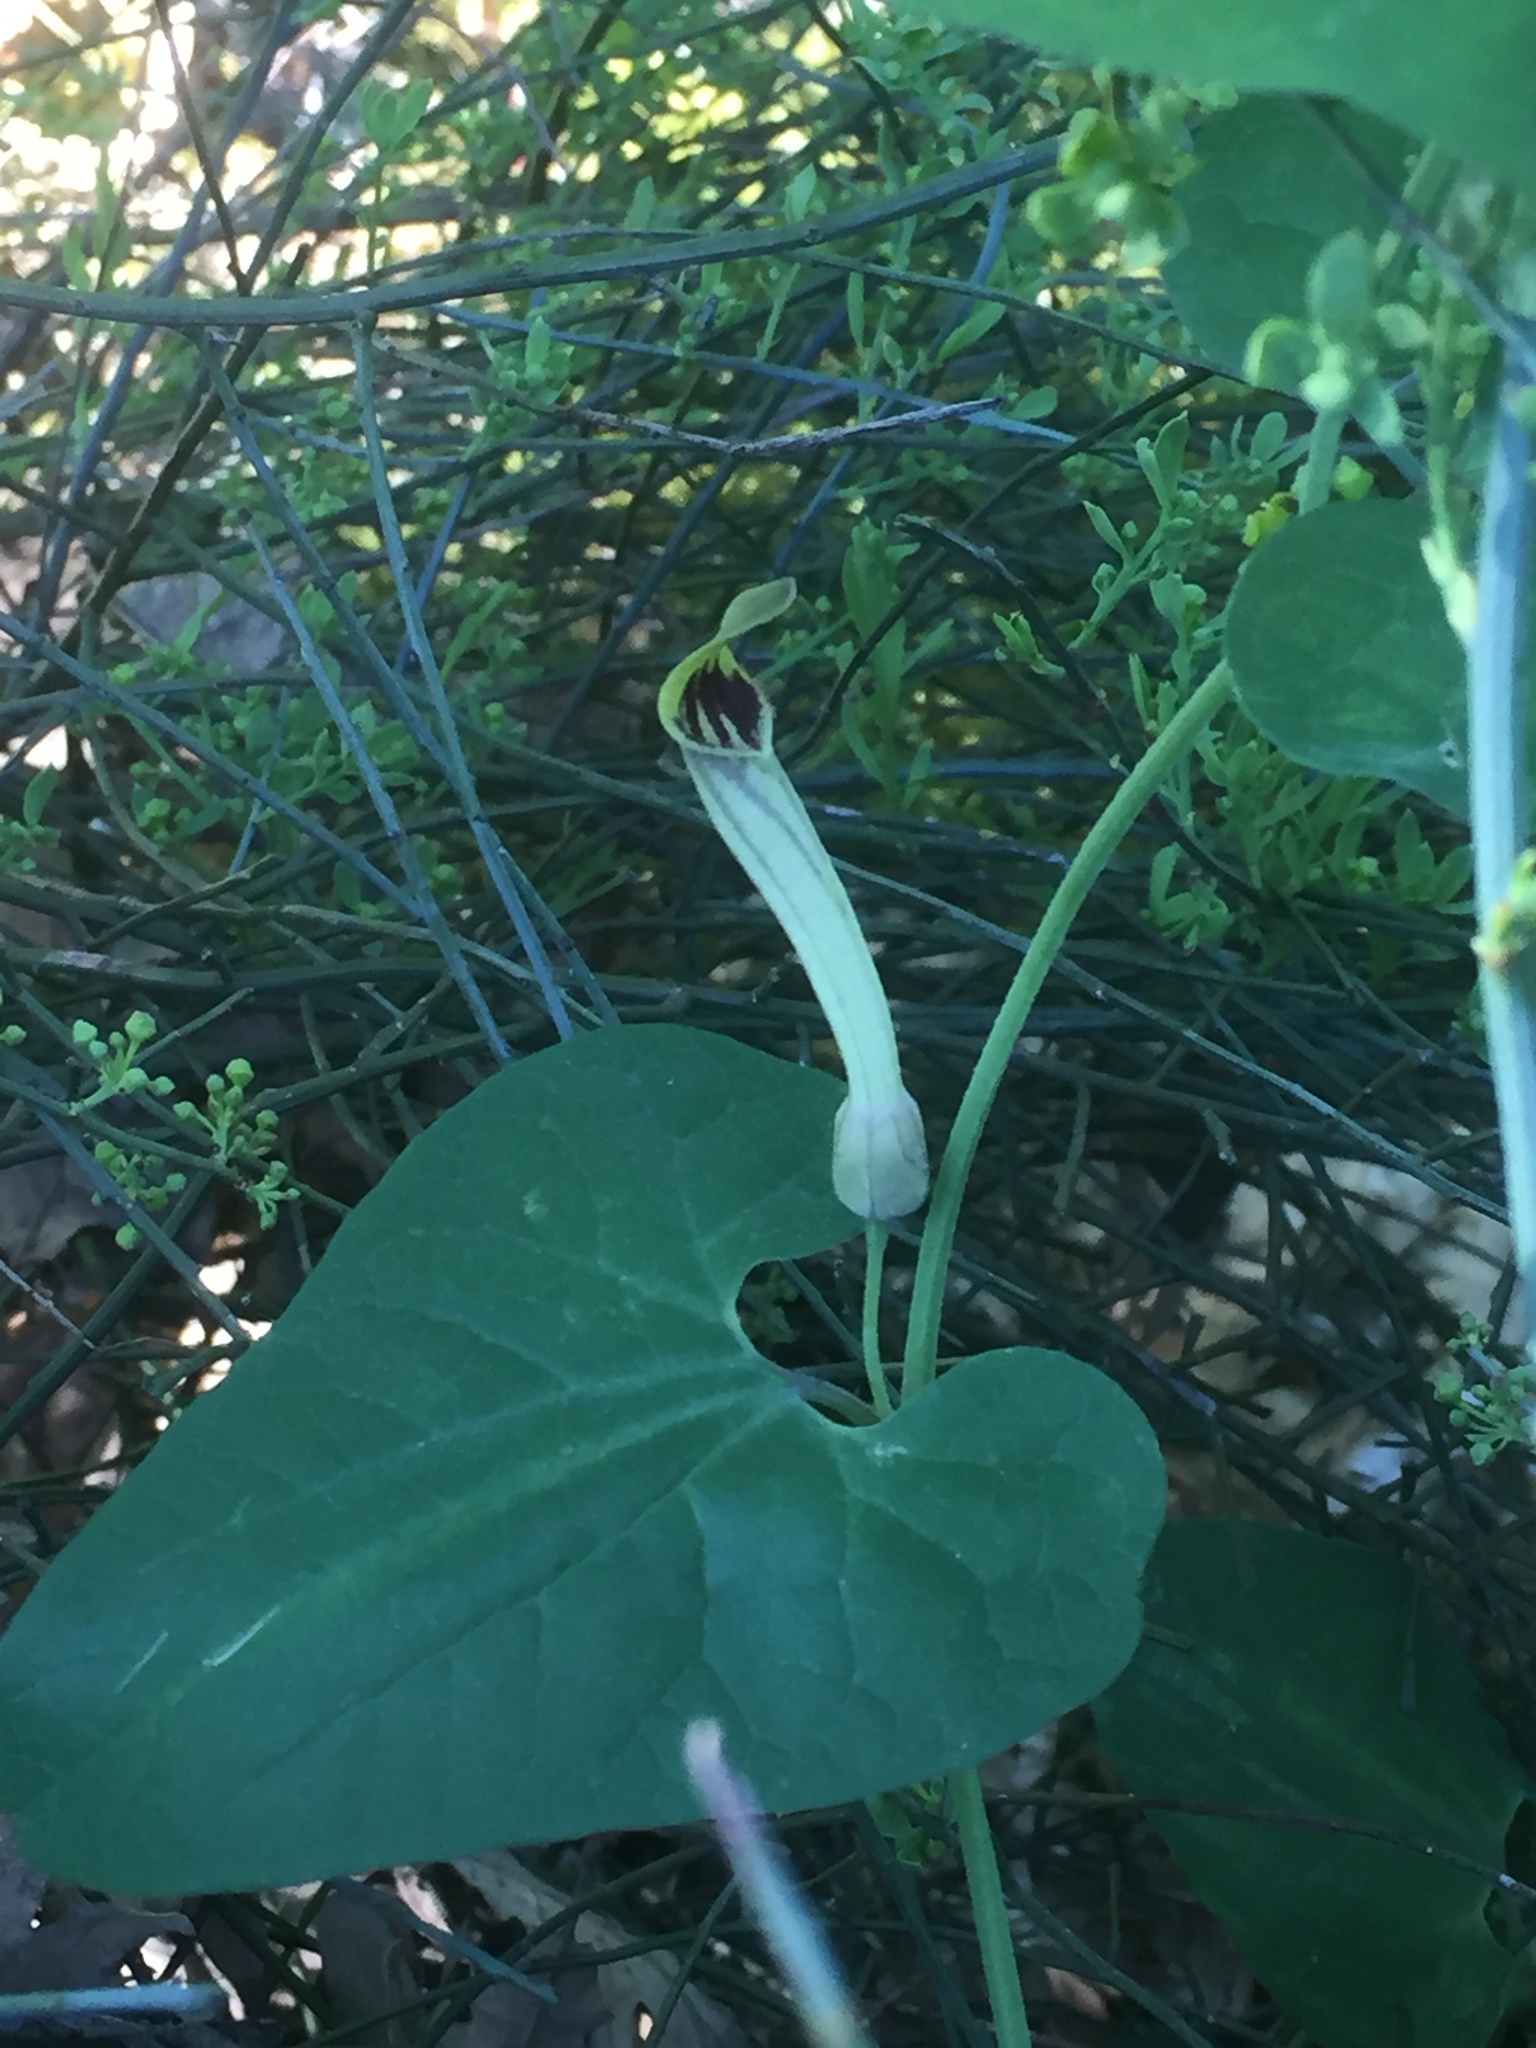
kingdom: Plantae
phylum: Tracheophyta
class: Magnoliopsida
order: Piperales
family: Aristolochiaceae
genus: Aristolochia
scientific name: Aristolochia paucinervis
